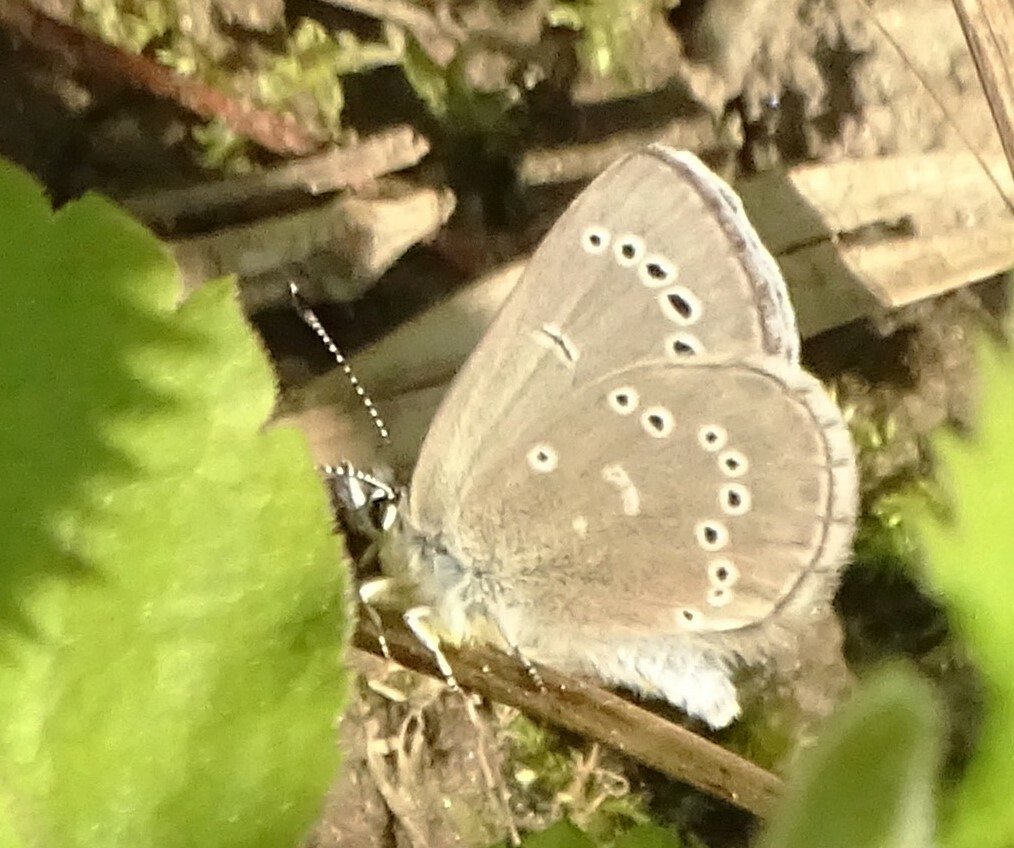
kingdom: Animalia
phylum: Arthropoda
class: Insecta
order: Lepidoptera
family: Lycaenidae
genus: Glaucopsyche
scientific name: Glaucopsyche lygdamus
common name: Silvery blue
